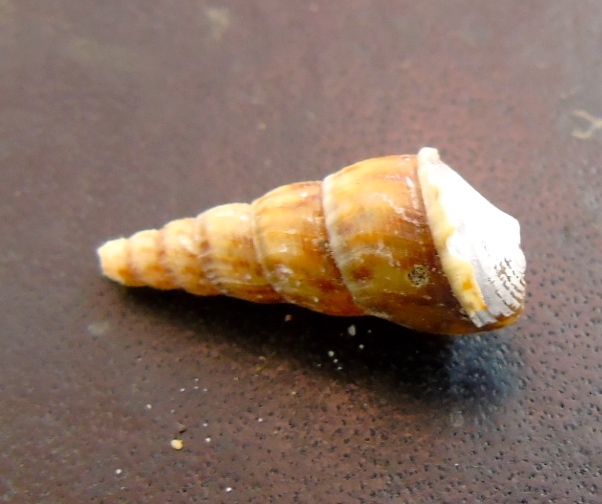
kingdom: Animalia
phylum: Mollusca
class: Gastropoda
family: Thiaridae
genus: Melanoides
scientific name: Melanoides tuberculata
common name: Red-rim melania
